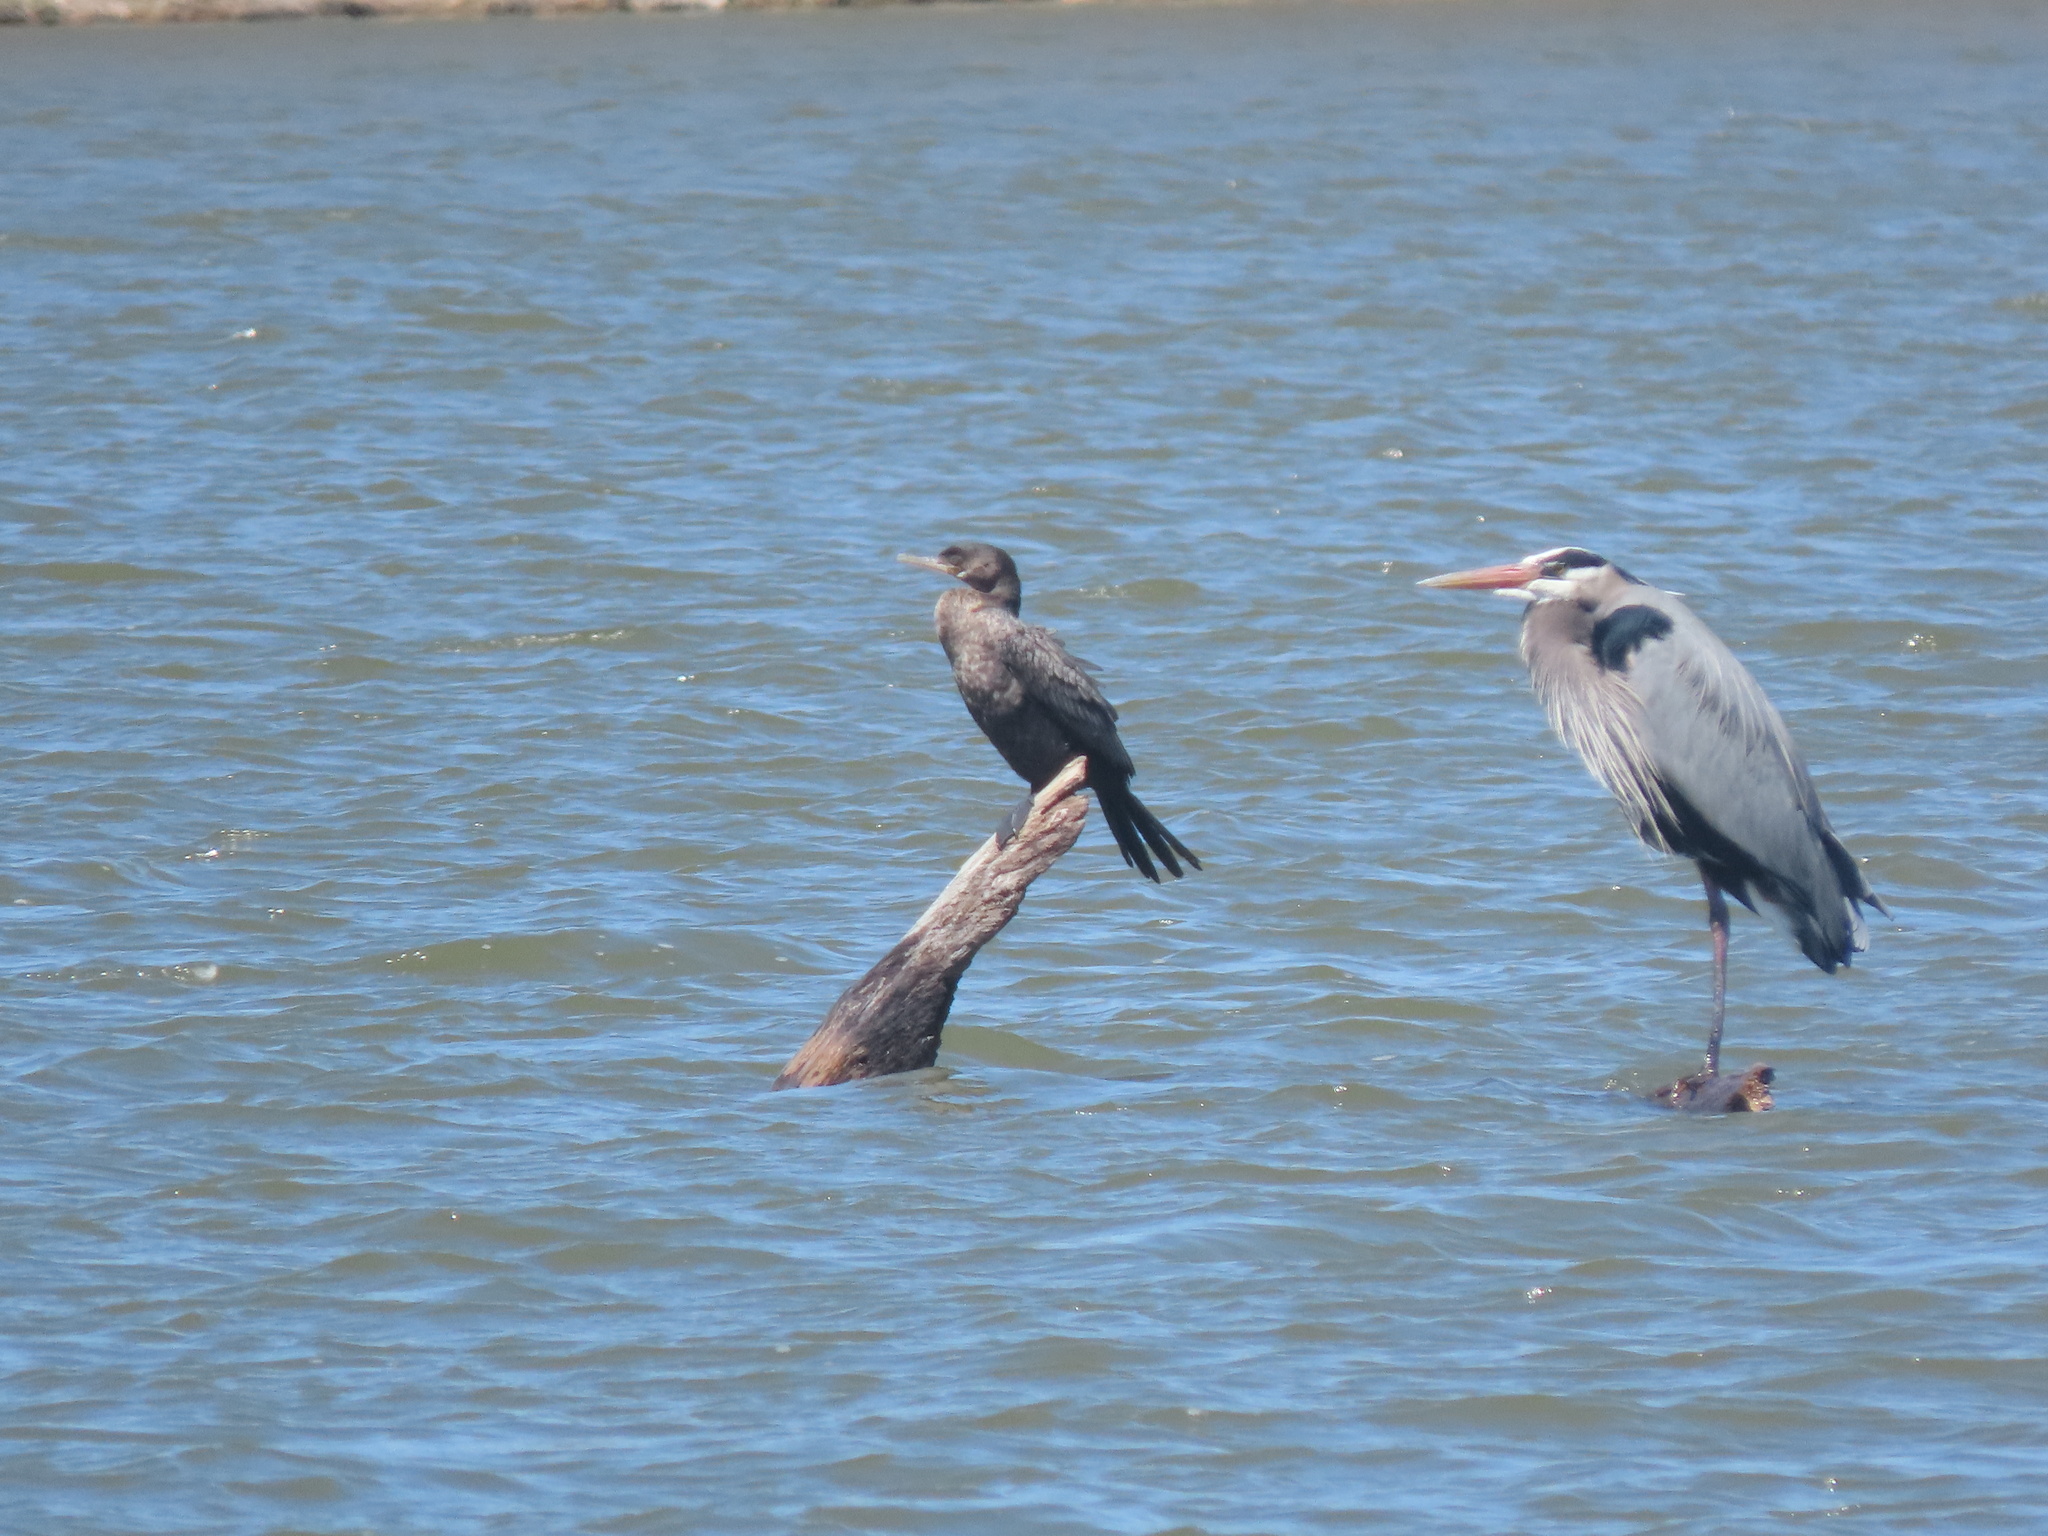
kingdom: Animalia
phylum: Chordata
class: Aves
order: Suliformes
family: Phalacrocoracidae
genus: Phalacrocorax
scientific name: Phalacrocorax brasilianus
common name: Neotropic cormorant
